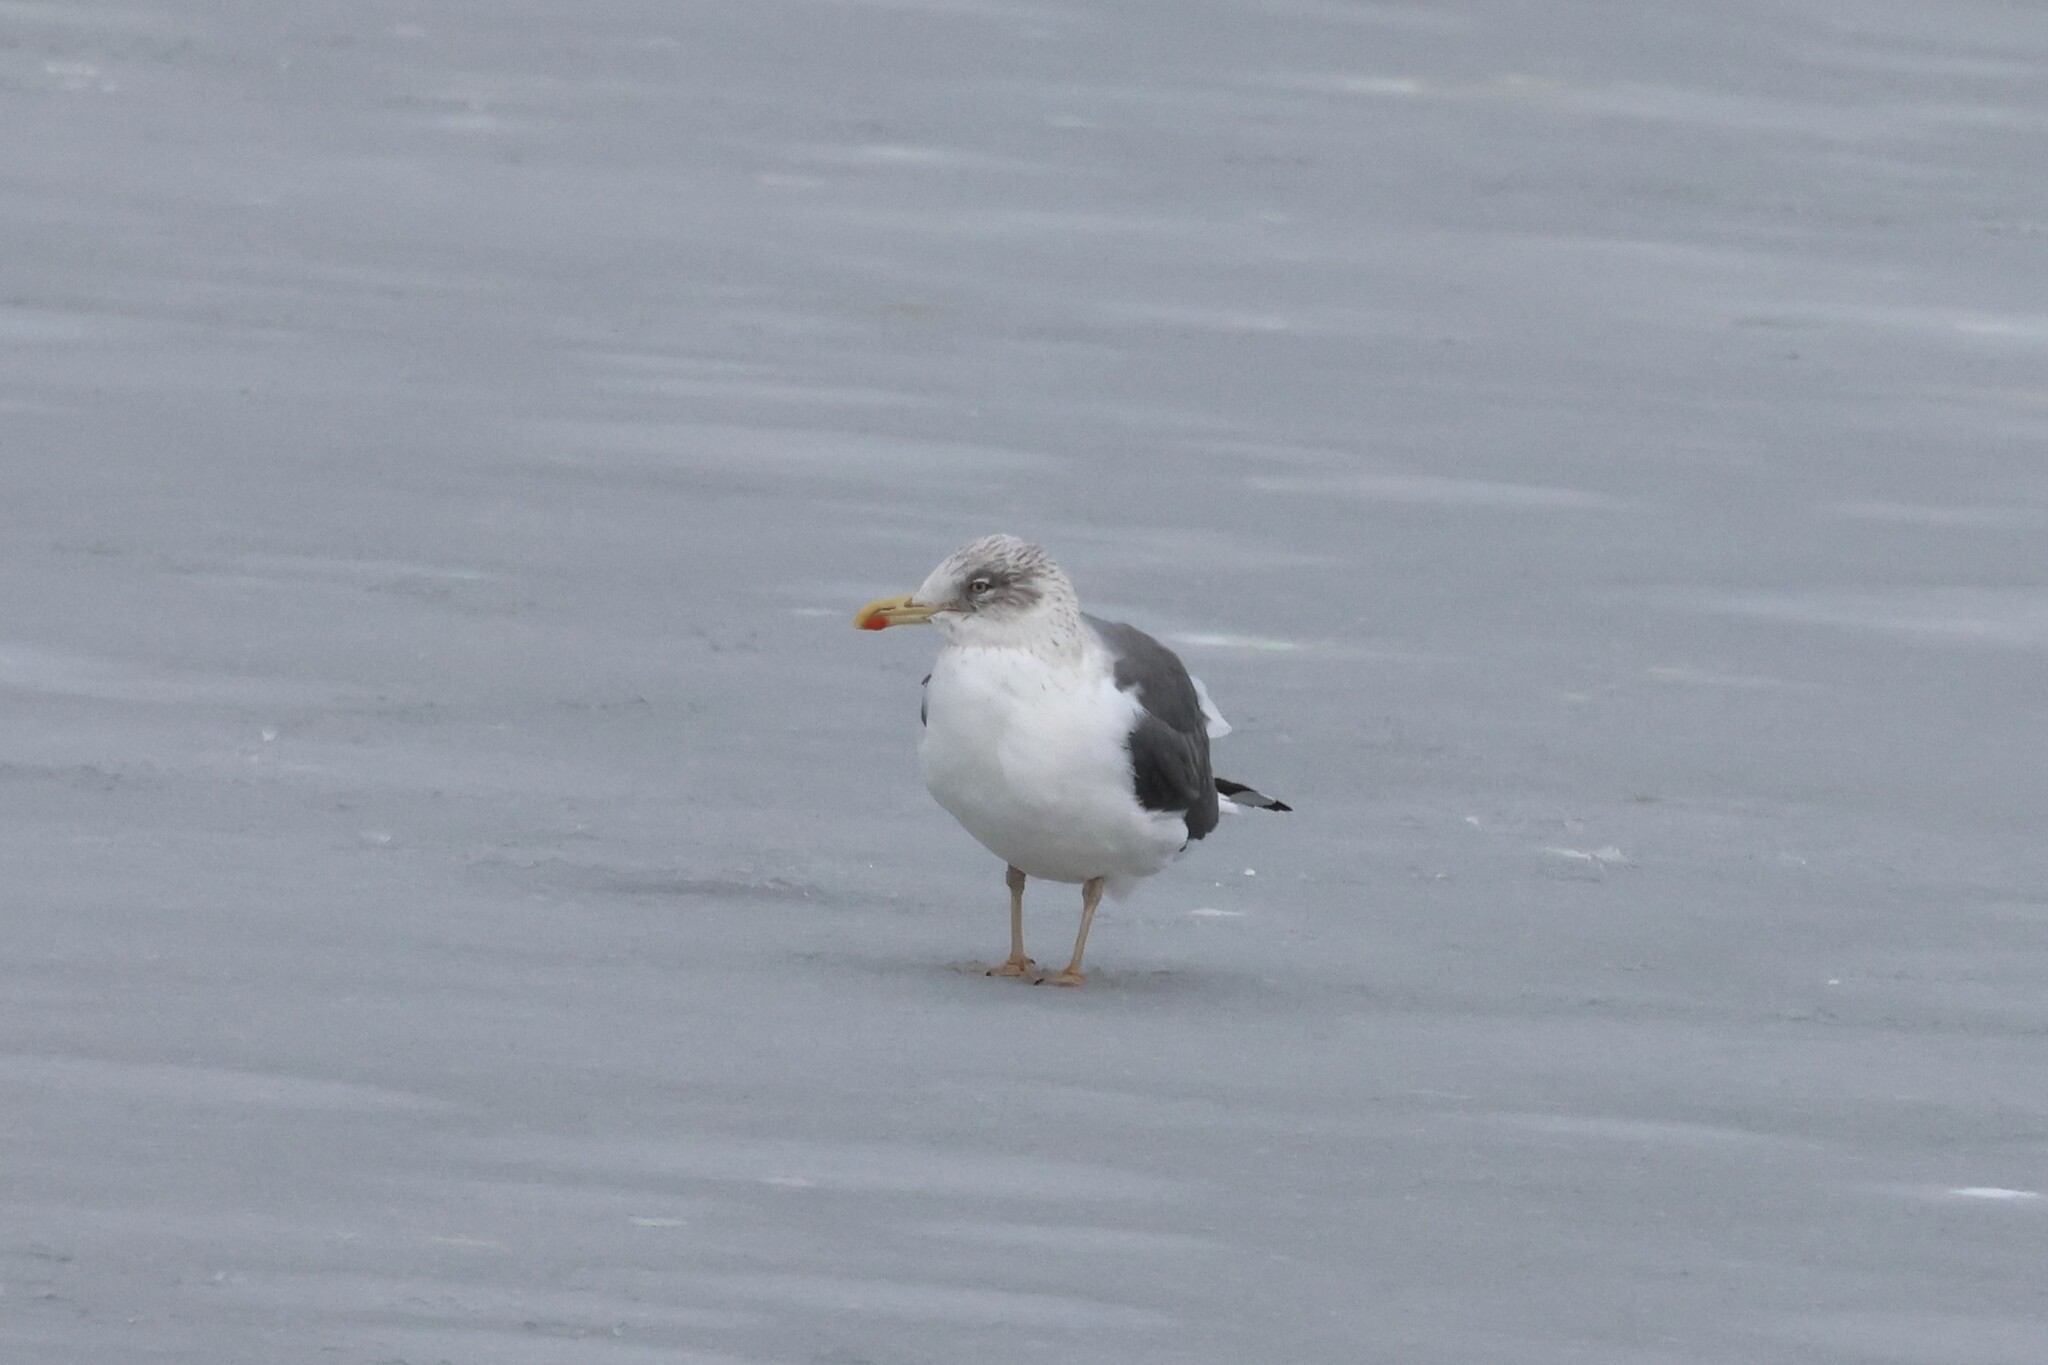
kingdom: Animalia
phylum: Chordata
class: Aves
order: Charadriiformes
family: Laridae
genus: Larus
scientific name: Larus fuscus
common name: Lesser black-backed gull
